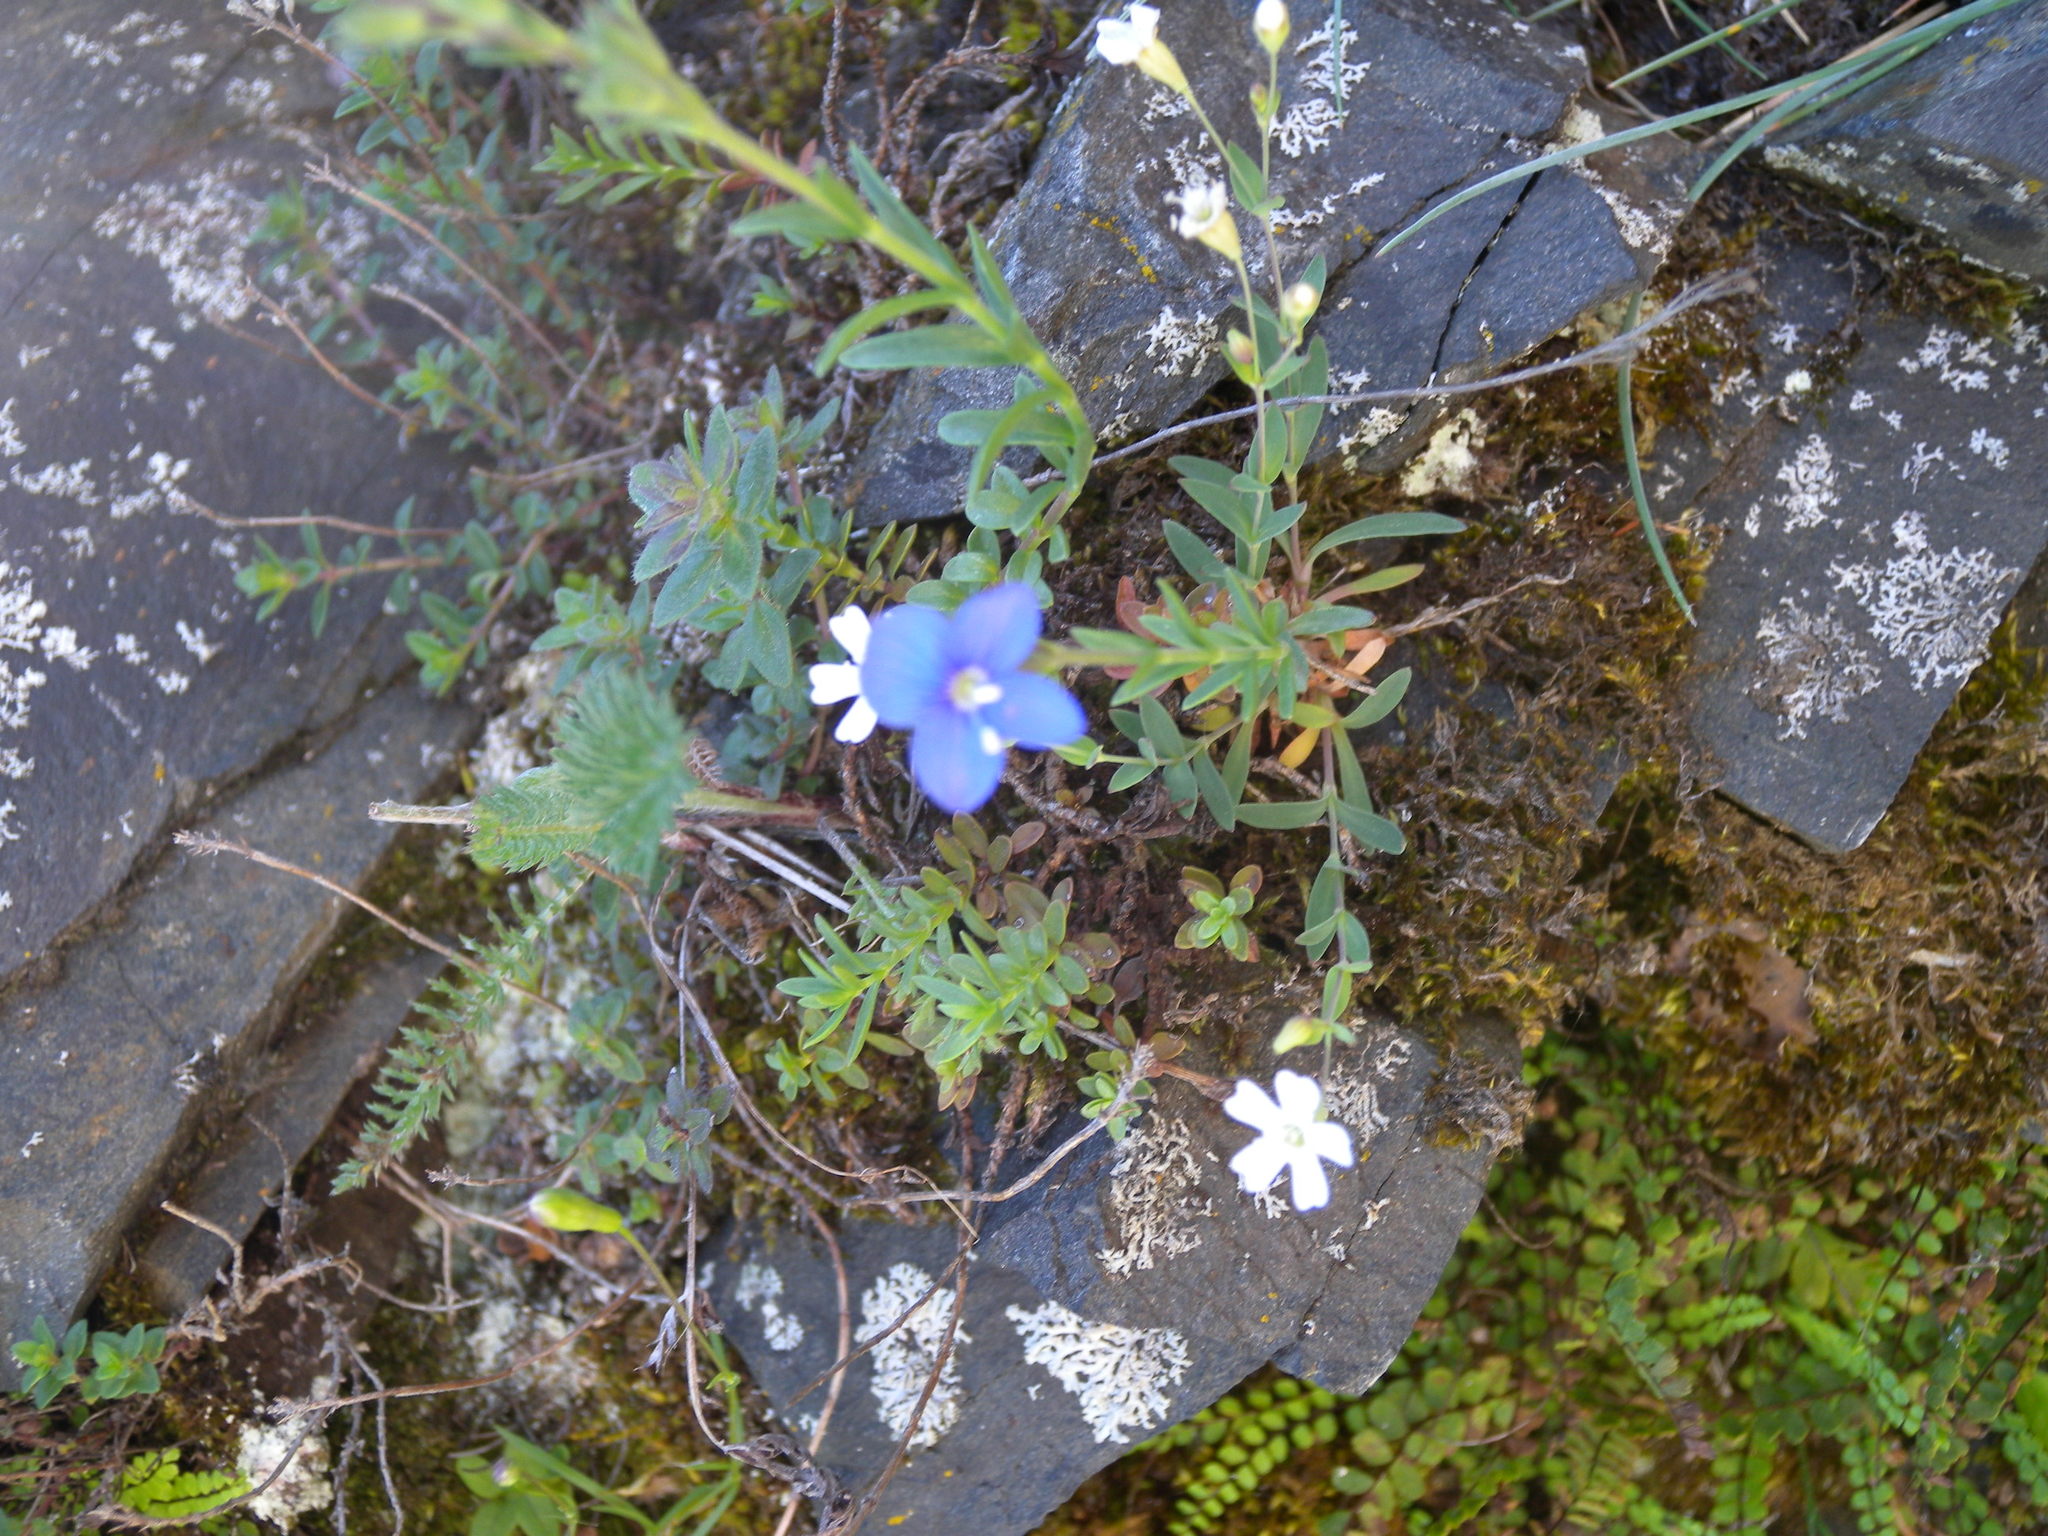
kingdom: Plantae
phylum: Tracheophyta
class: Magnoliopsida
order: Lamiales
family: Plantaginaceae
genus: Veronica
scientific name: Veronica fruticans
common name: Rock speedwell
